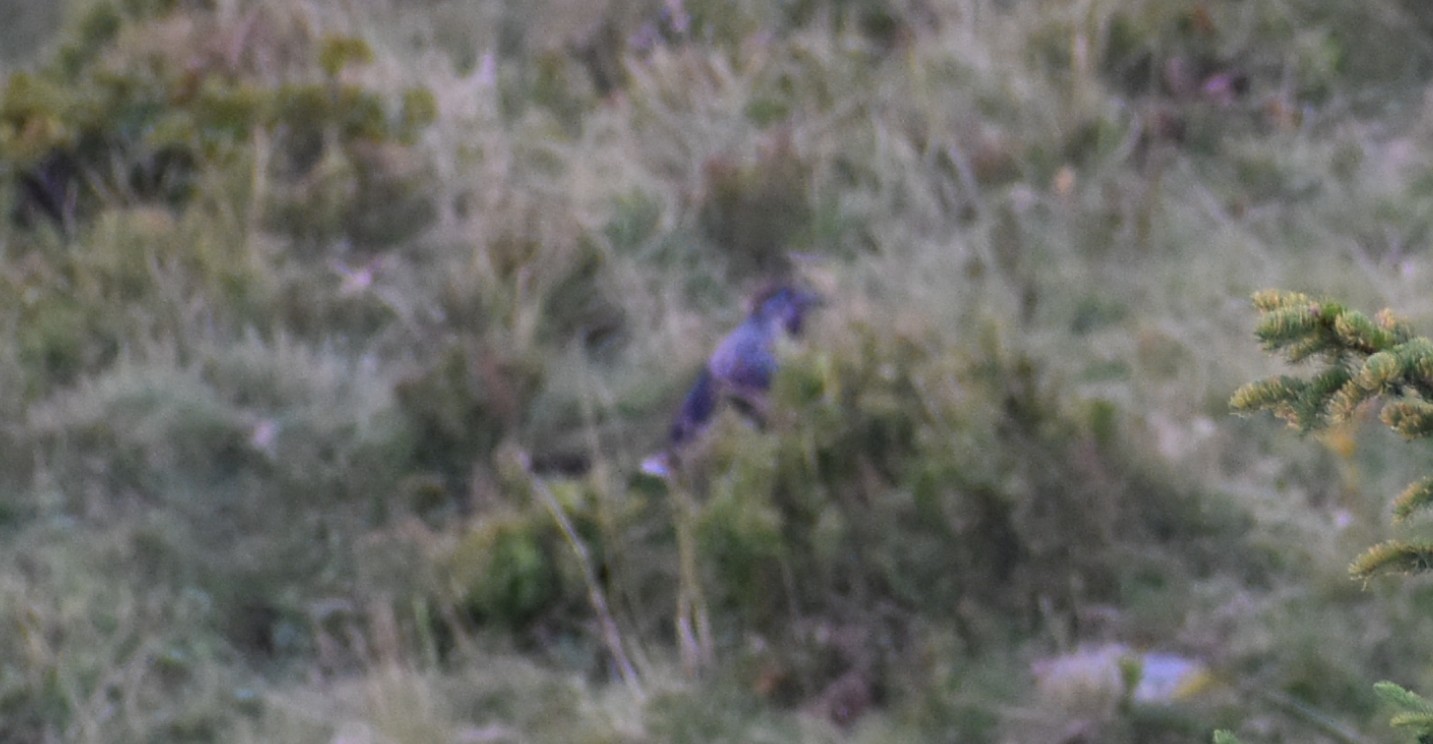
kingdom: Animalia
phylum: Chordata
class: Aves
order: Passeriformes
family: Corvidae
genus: Nucifraga
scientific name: Nucifraga caryocatactes
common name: Spotted nutcracker
